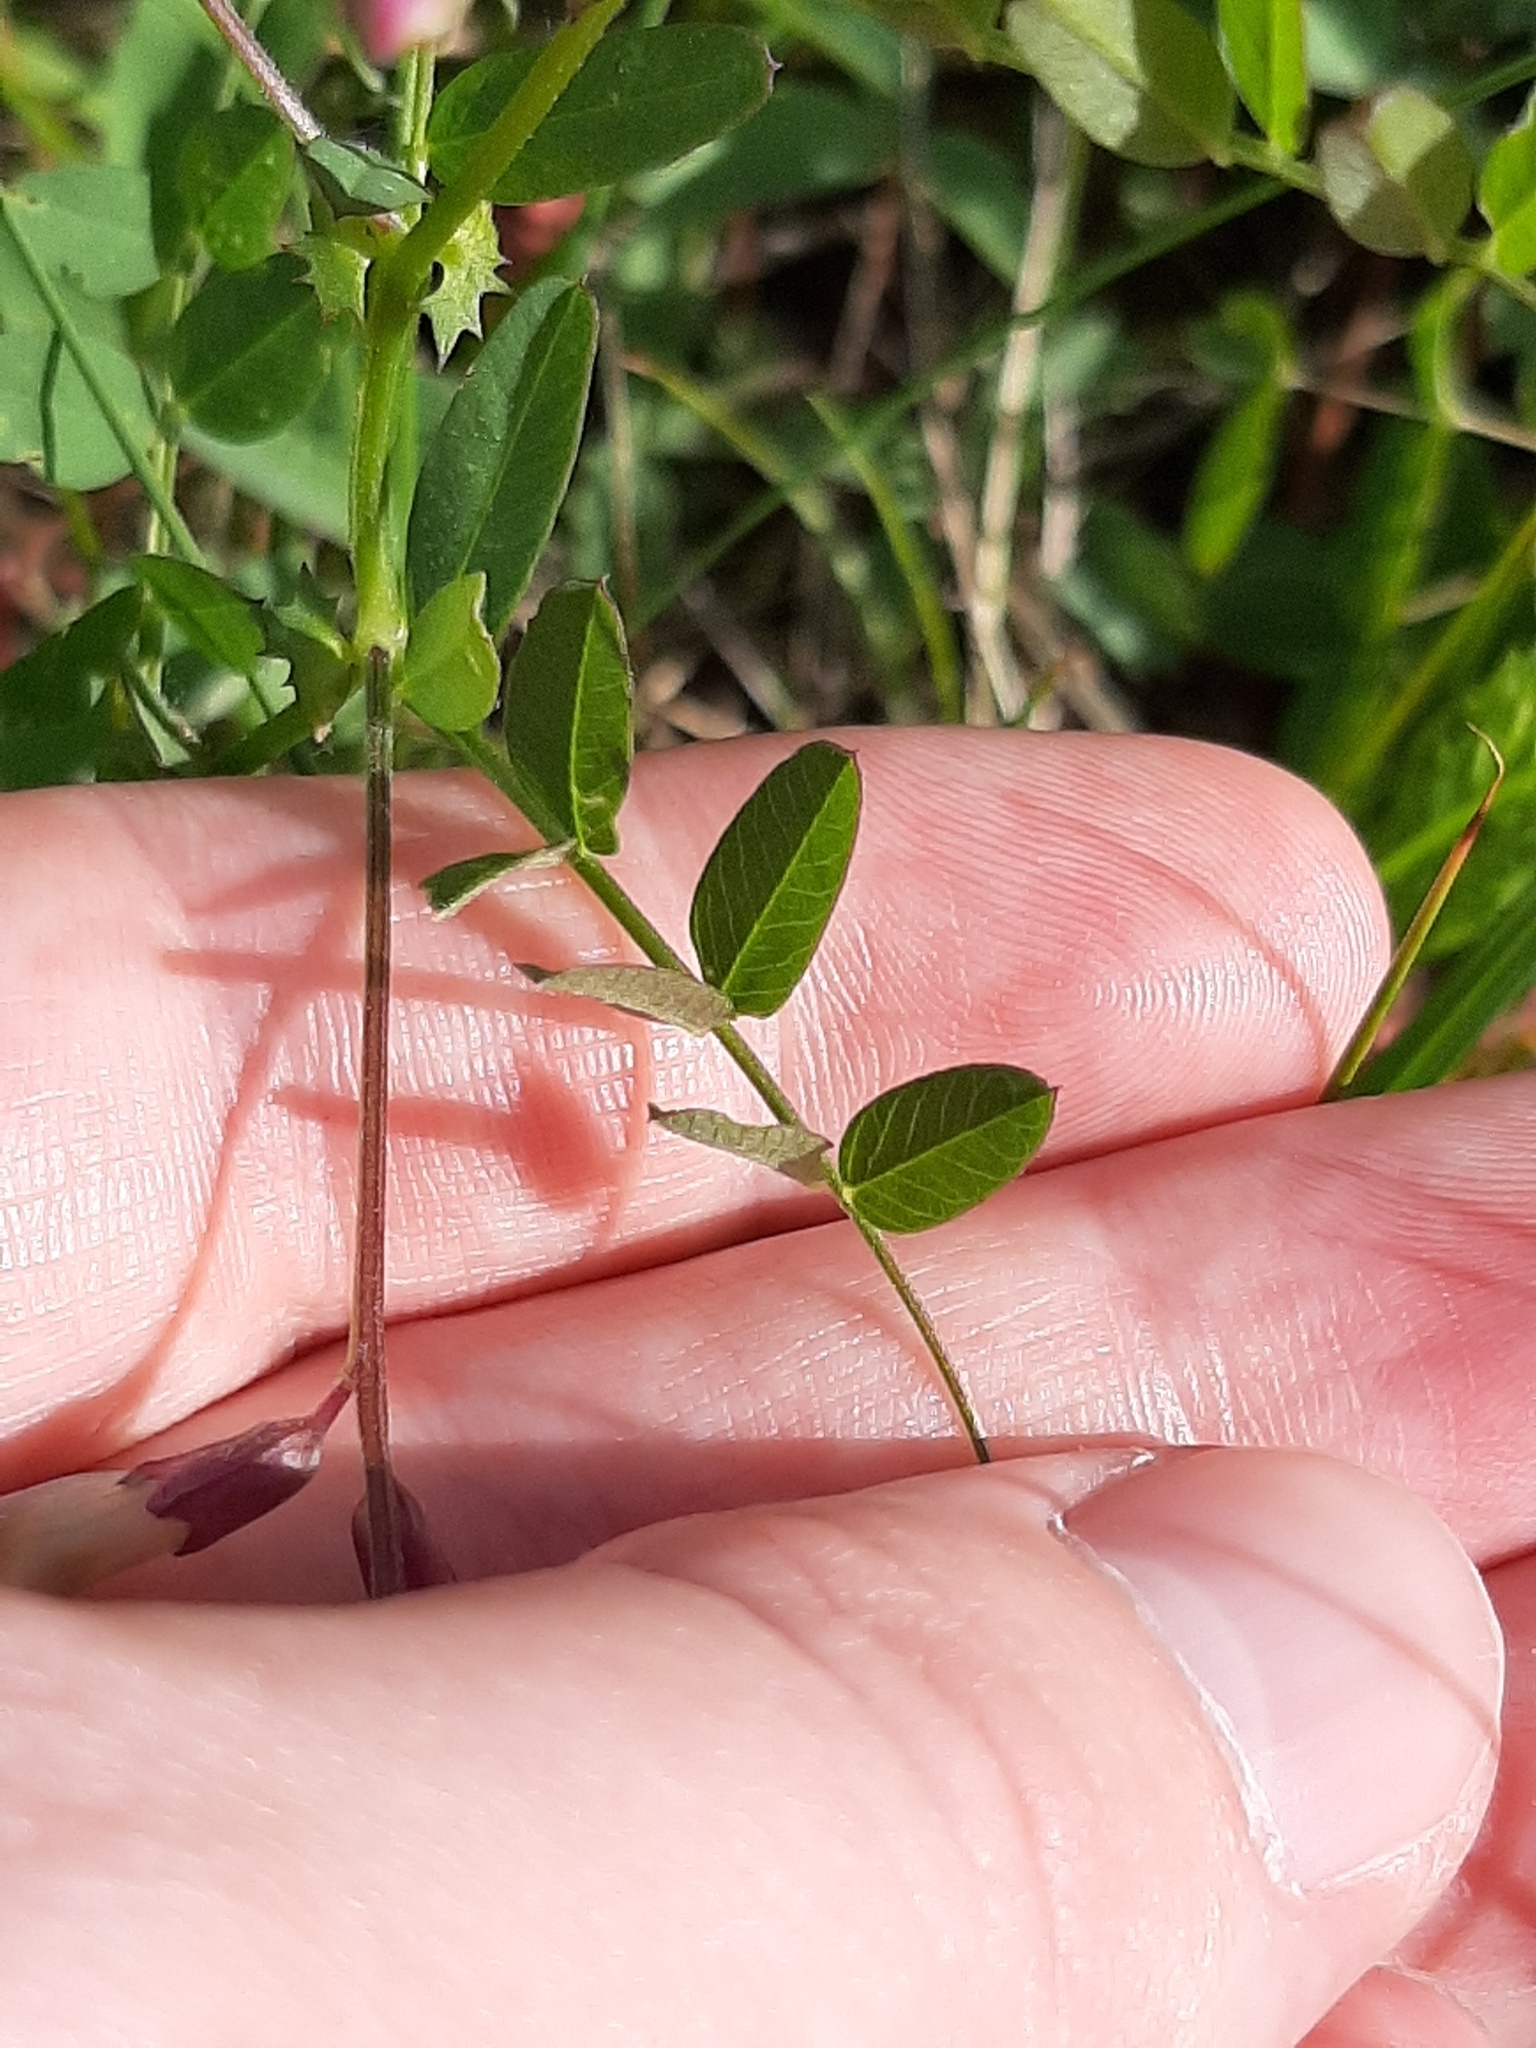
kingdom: Plantae
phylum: Tracheophyta
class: Magnoliopsida
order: Fabales
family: Fabaceae
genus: Vicia
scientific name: Vicia americana
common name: American vetch
